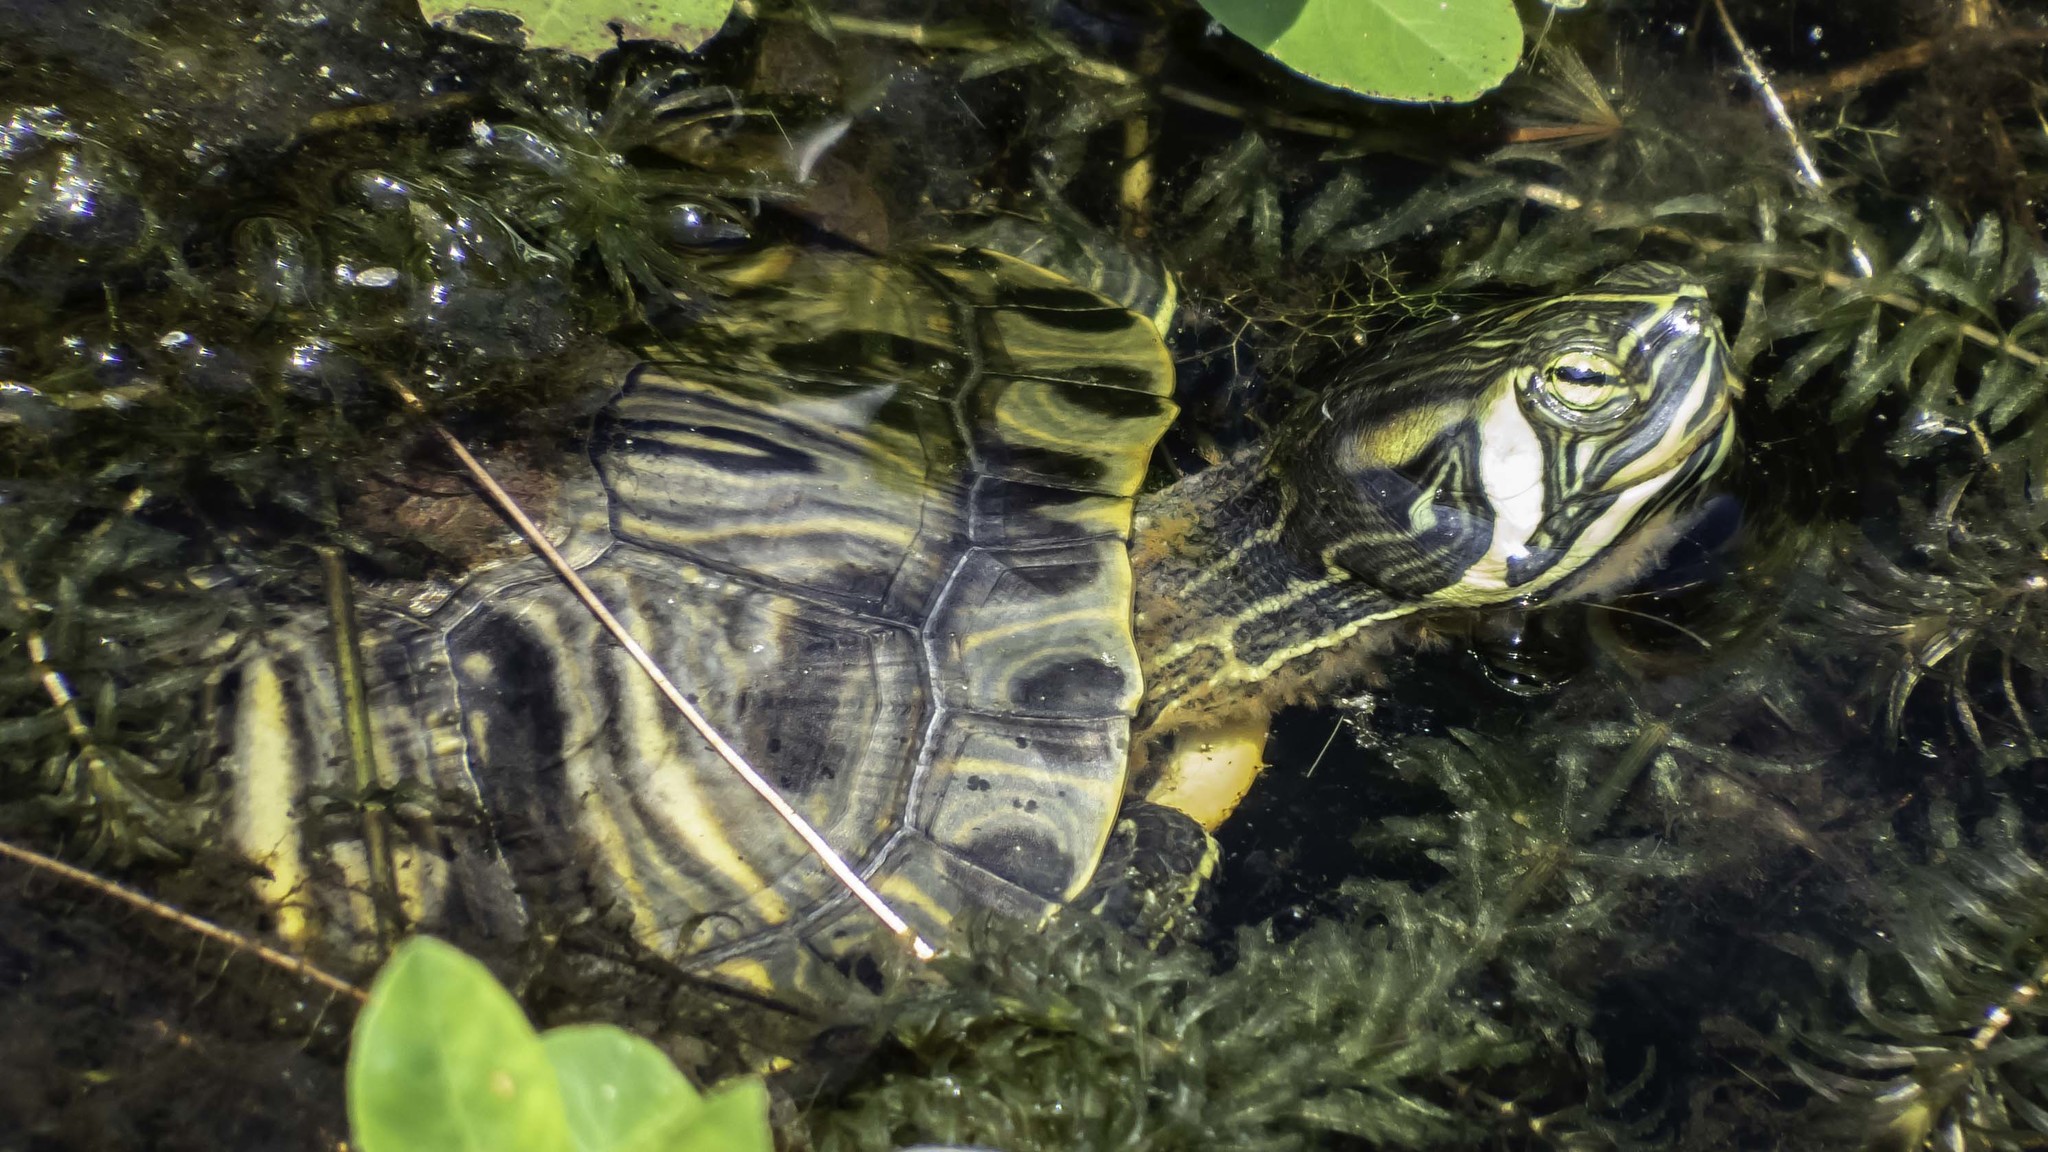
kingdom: Animalia
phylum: Chordata
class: Testudines
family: Emydidae
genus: Trachemys
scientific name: Trachemys scripta
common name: Slider
